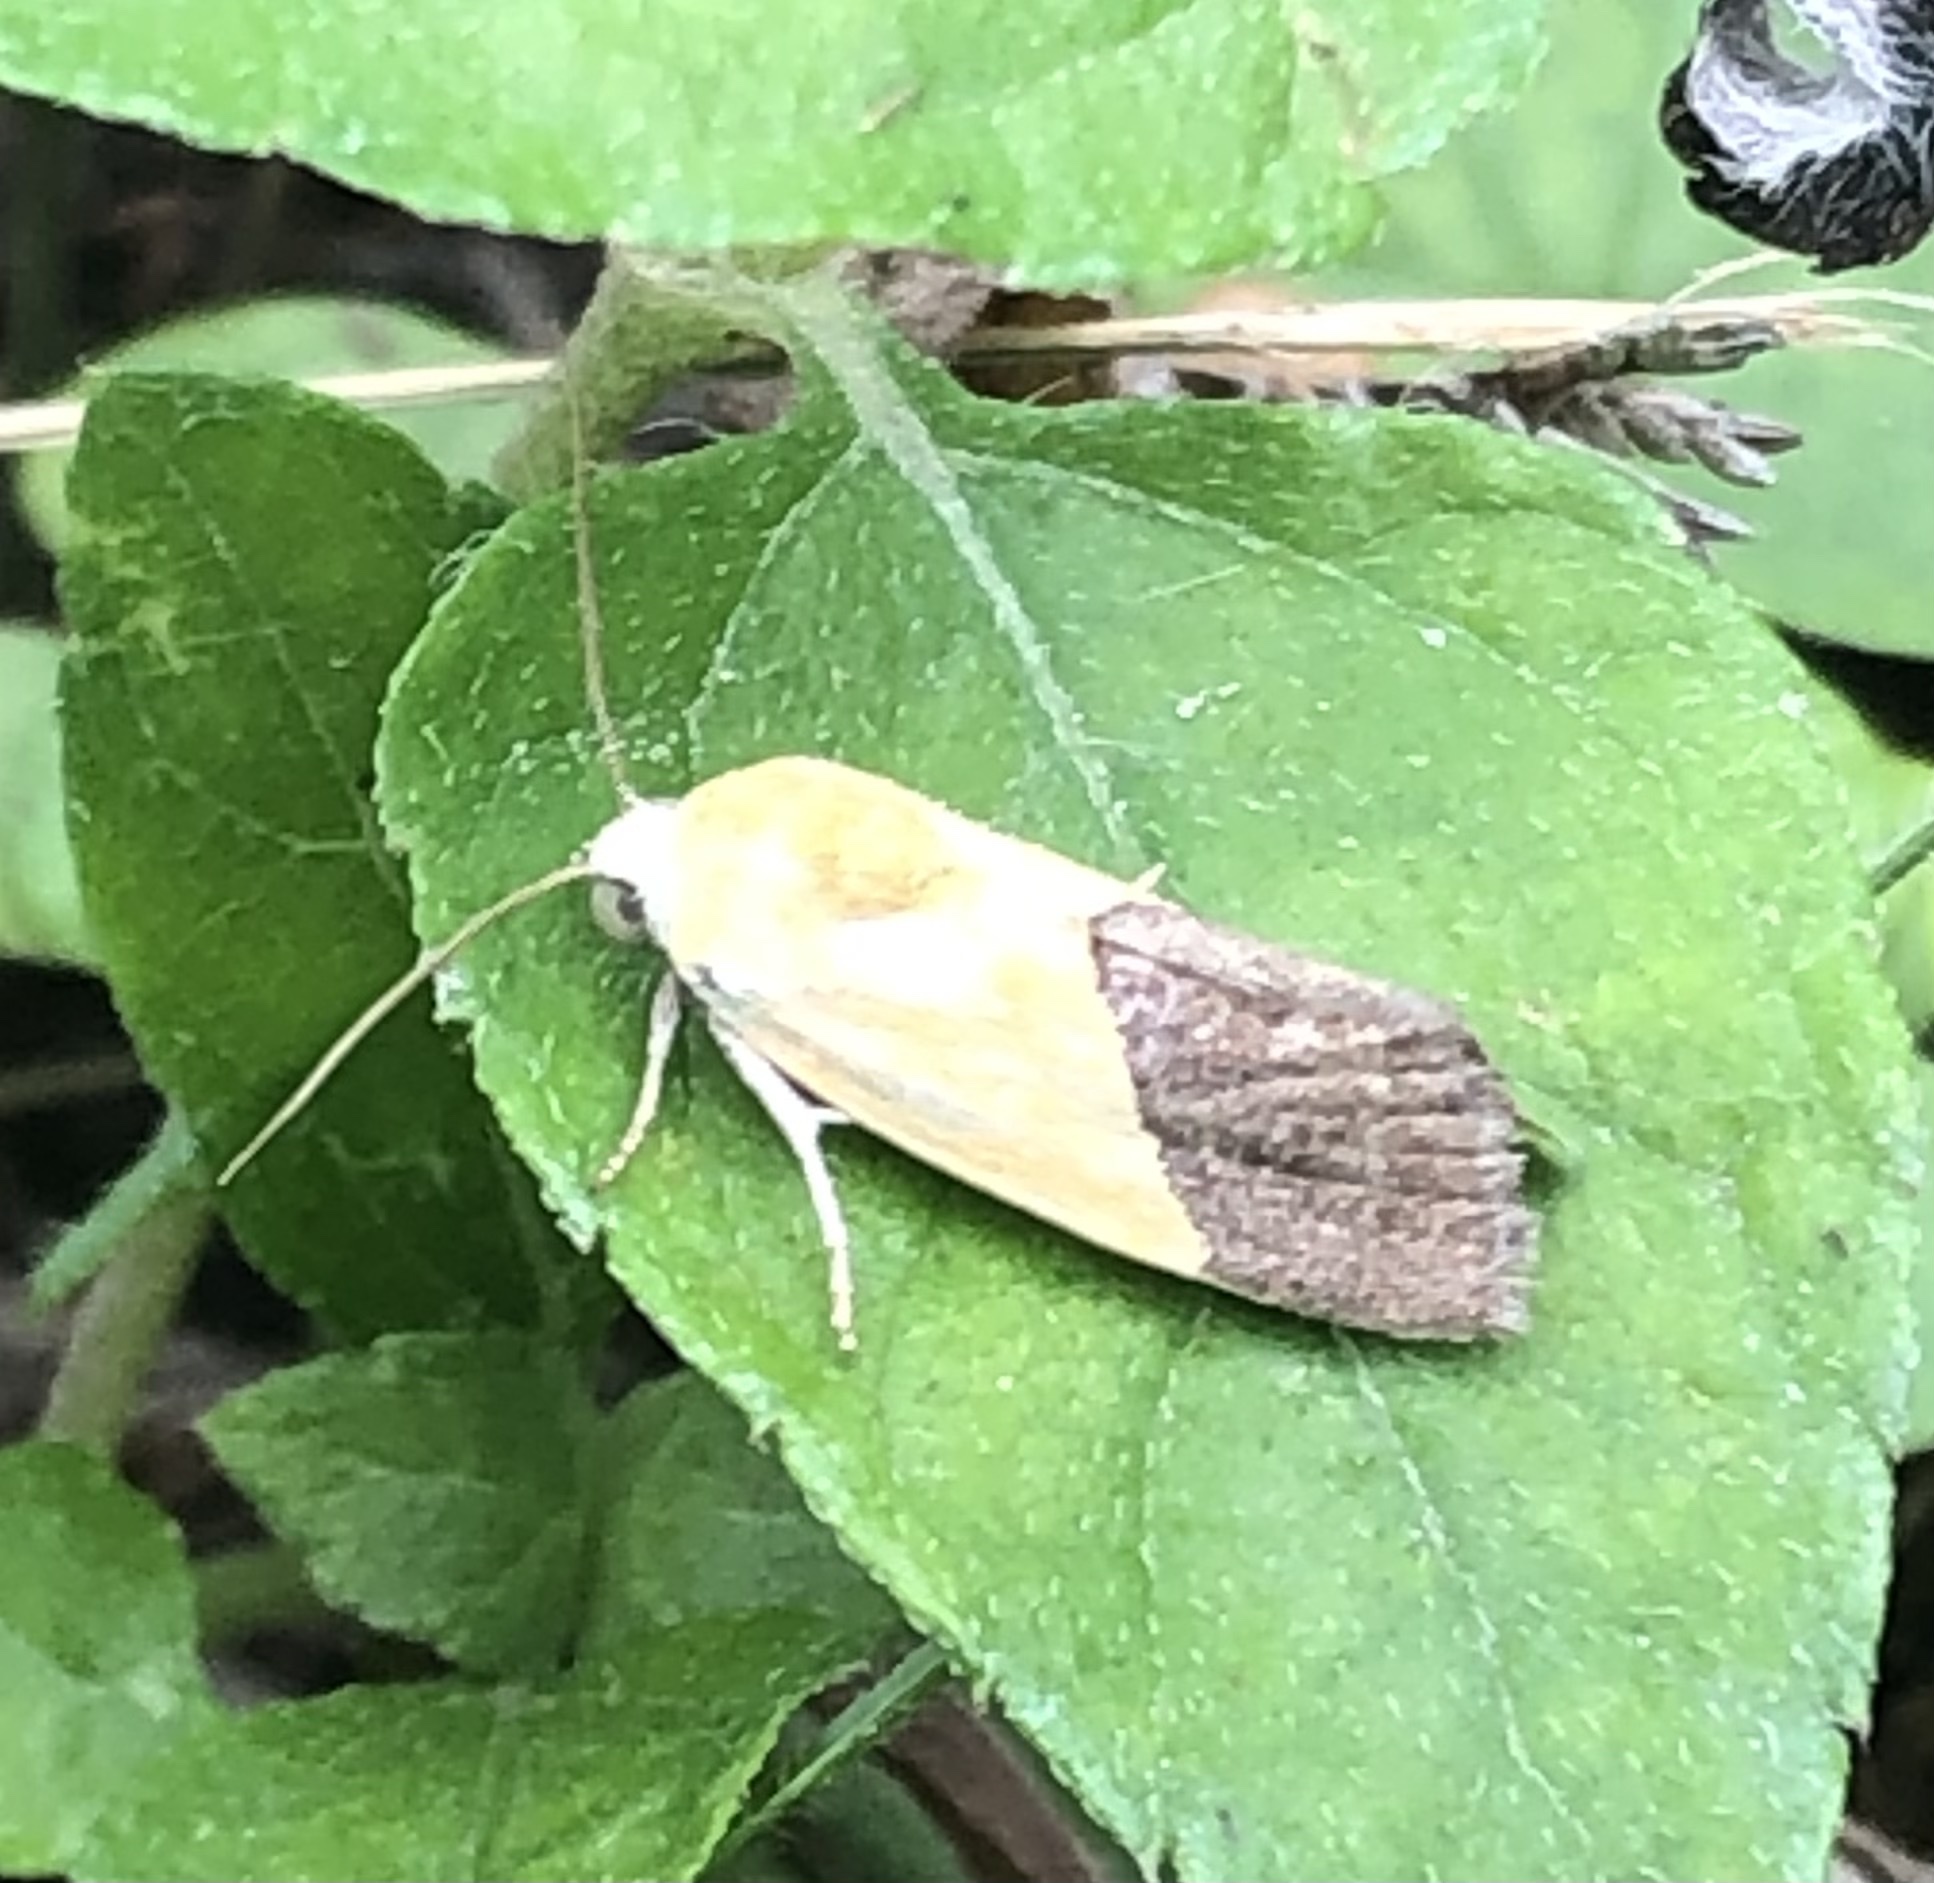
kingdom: Animalia
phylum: Arthropoda
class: Insecta
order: Lepidoptera
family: Noctuidae
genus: Acontia
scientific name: Acontia semiflava
